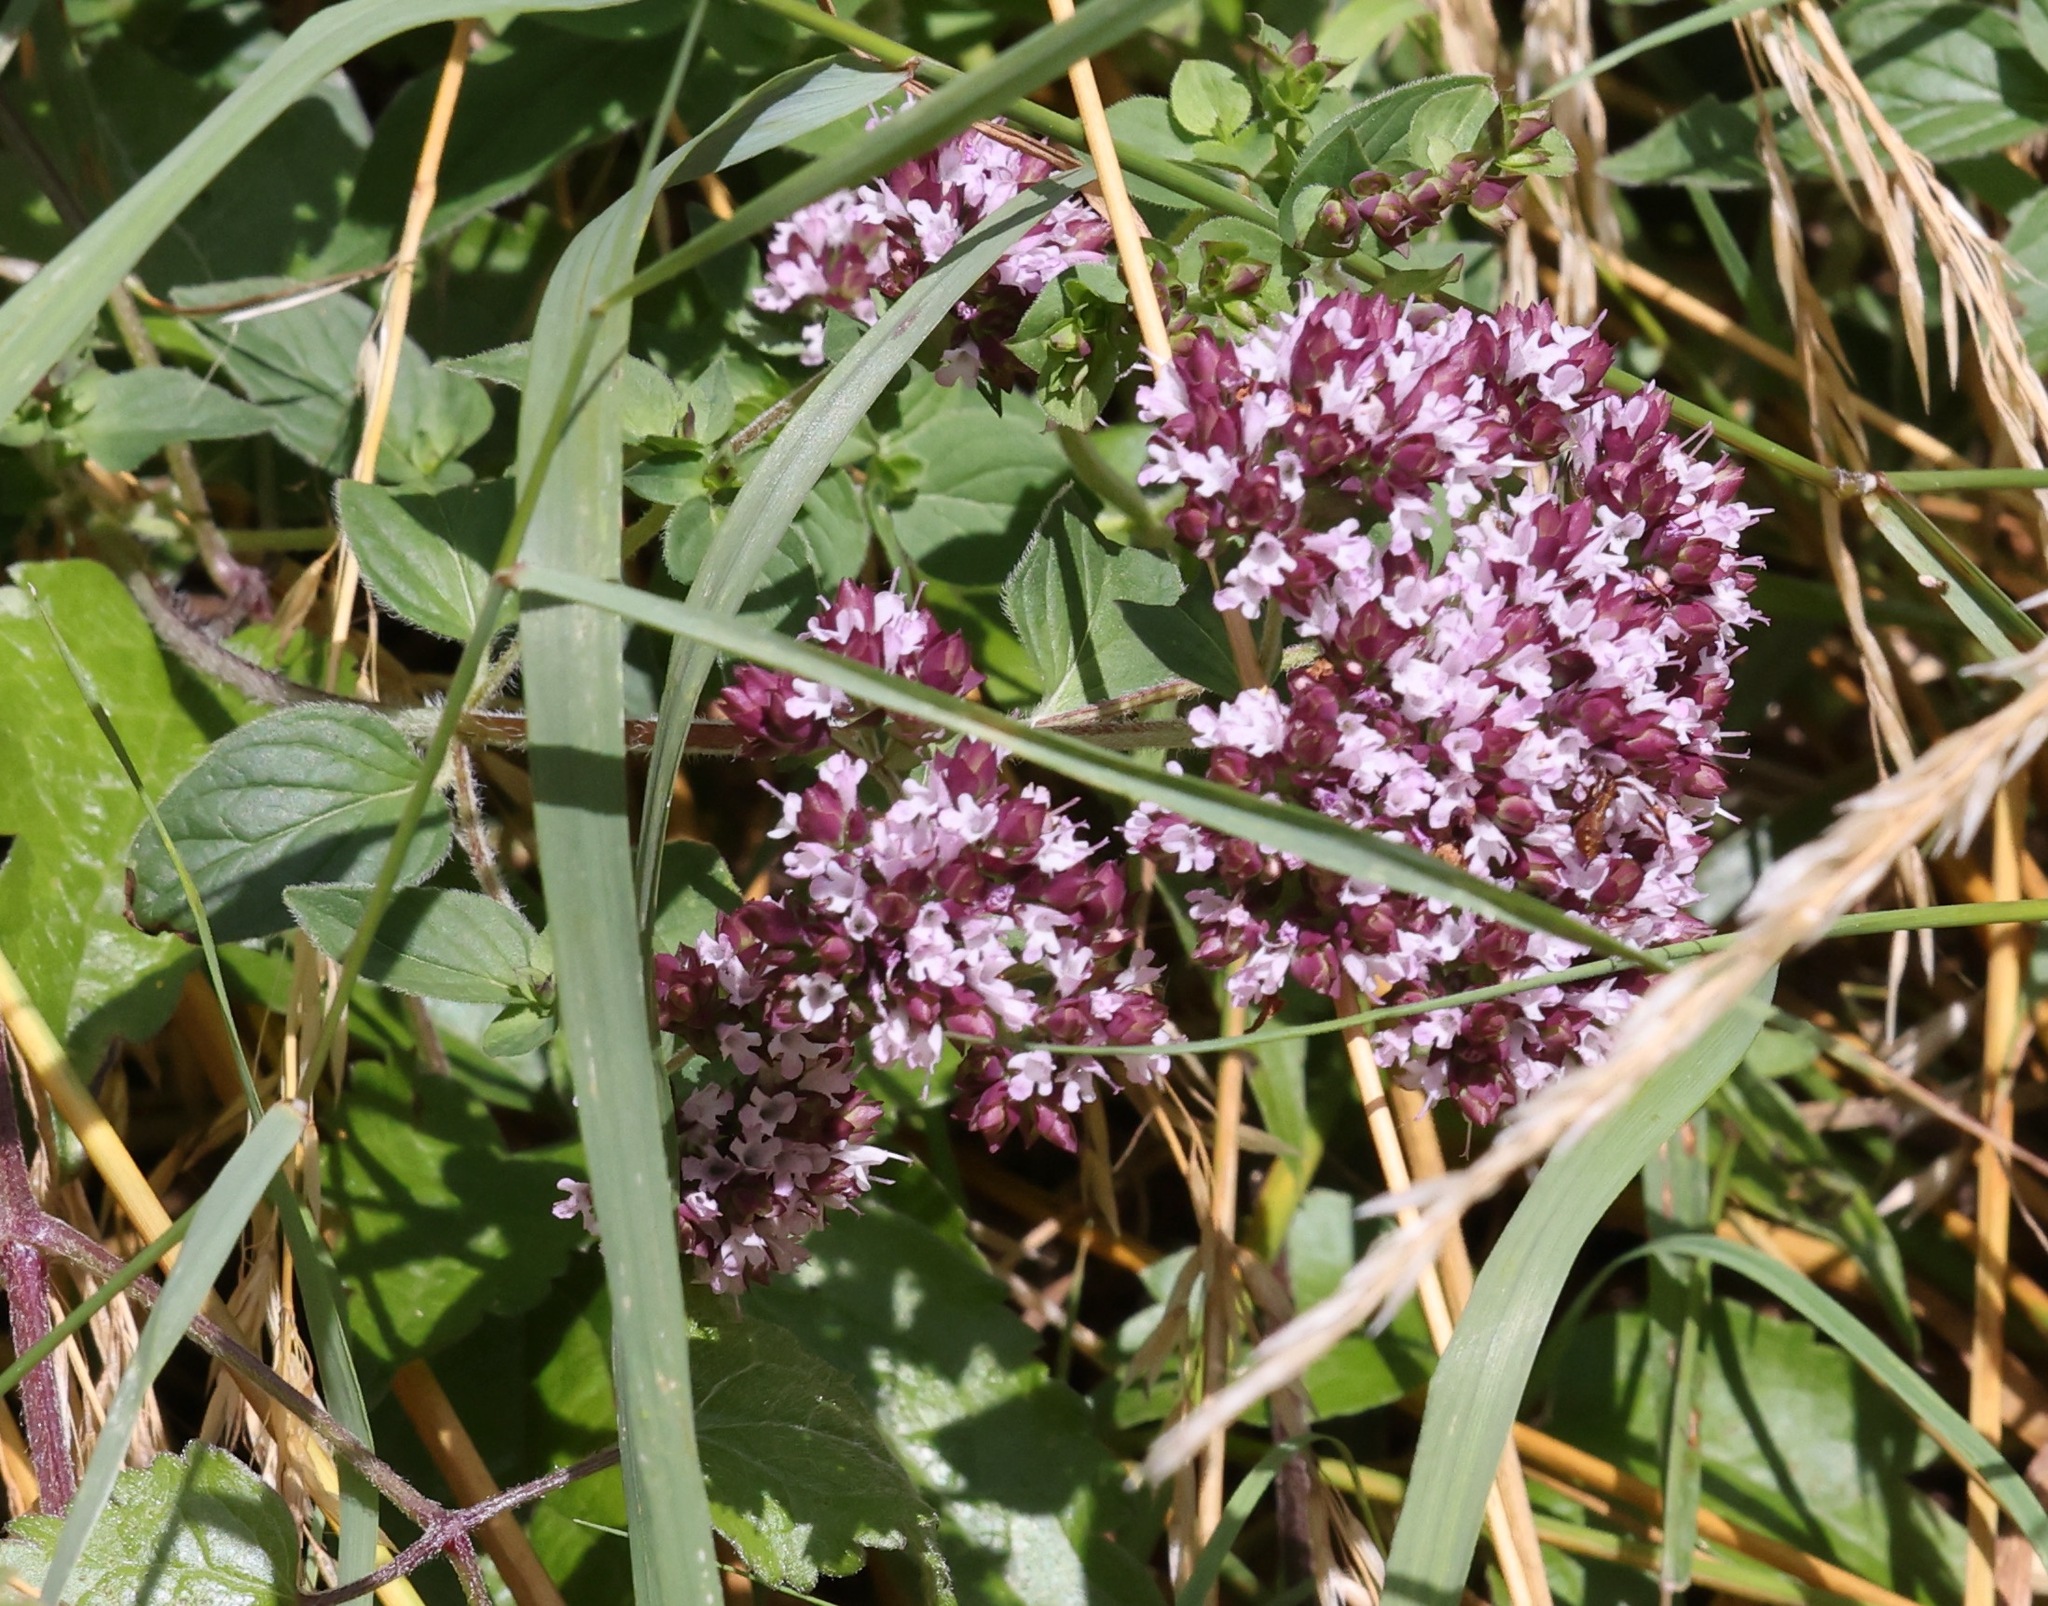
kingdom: Plantae
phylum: Tracheophyta
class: Magnoliopsida
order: Lamiales
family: Lamiaceae
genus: Origanum
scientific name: Origanum vulgare
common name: Wild marjoram
